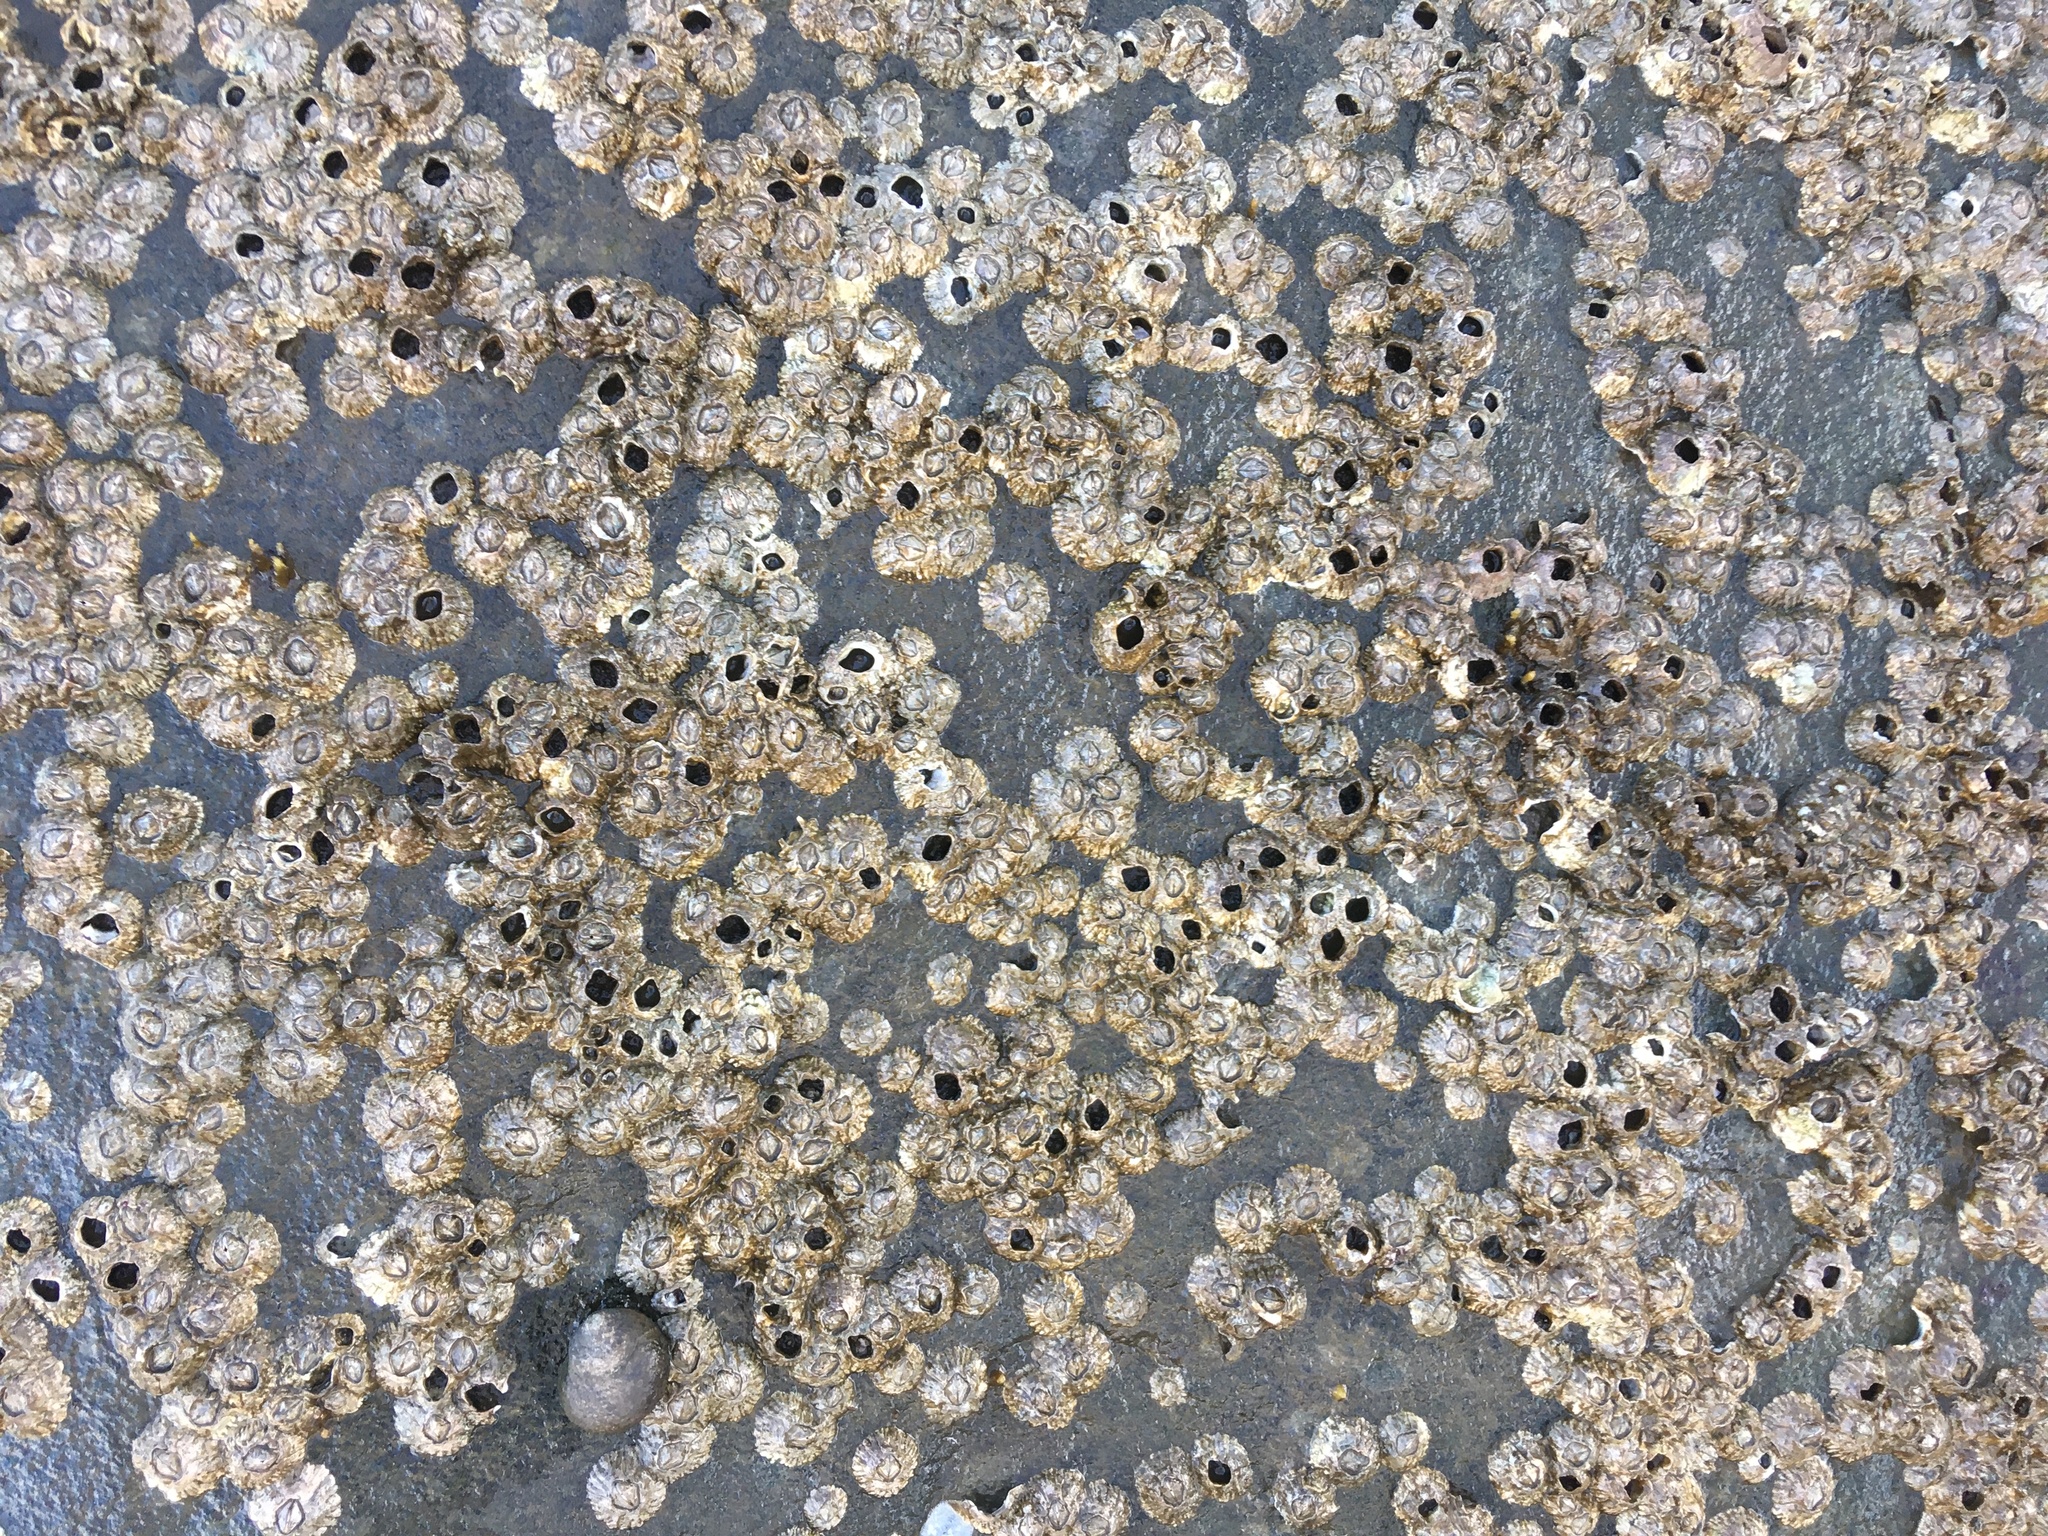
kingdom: Animalia
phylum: Arthropoda
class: Maxillopoda
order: Sessilia
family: Archaeobalanidae
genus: Semibalanus
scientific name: Semibalanus balanoides
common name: Acorn barnacle
